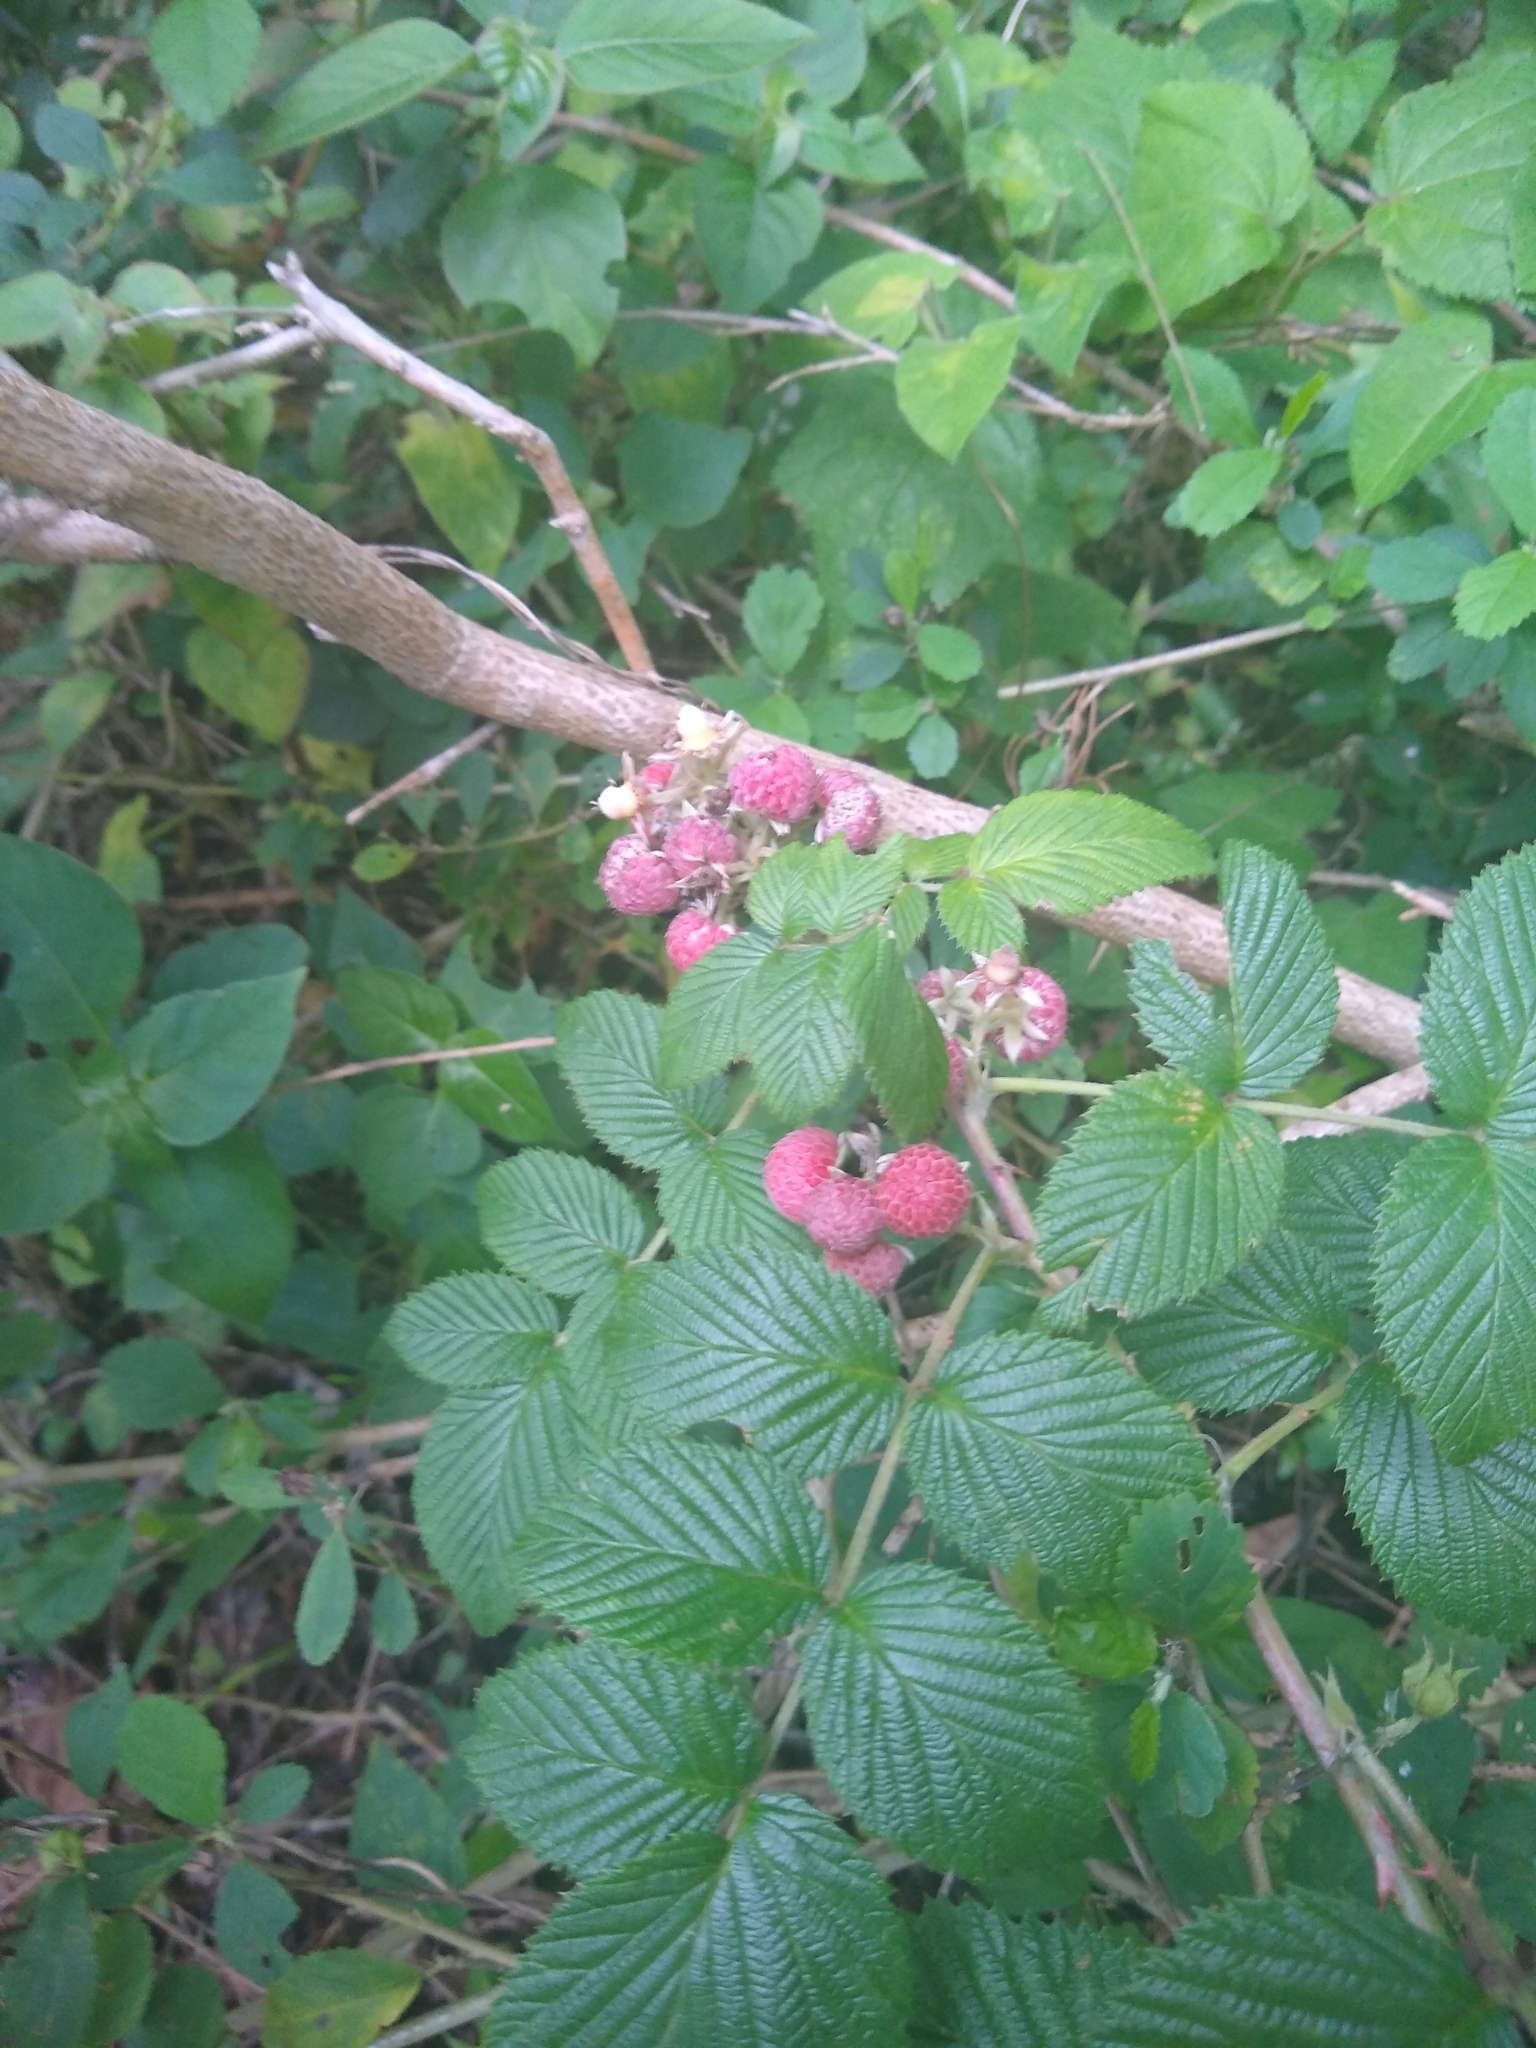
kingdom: Plantae
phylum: Tracheophyta
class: Magnoliopsida
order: Rosales
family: Rosaceae
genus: Rubus
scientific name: Rubus niveus
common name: Snowpeaks raspberry
